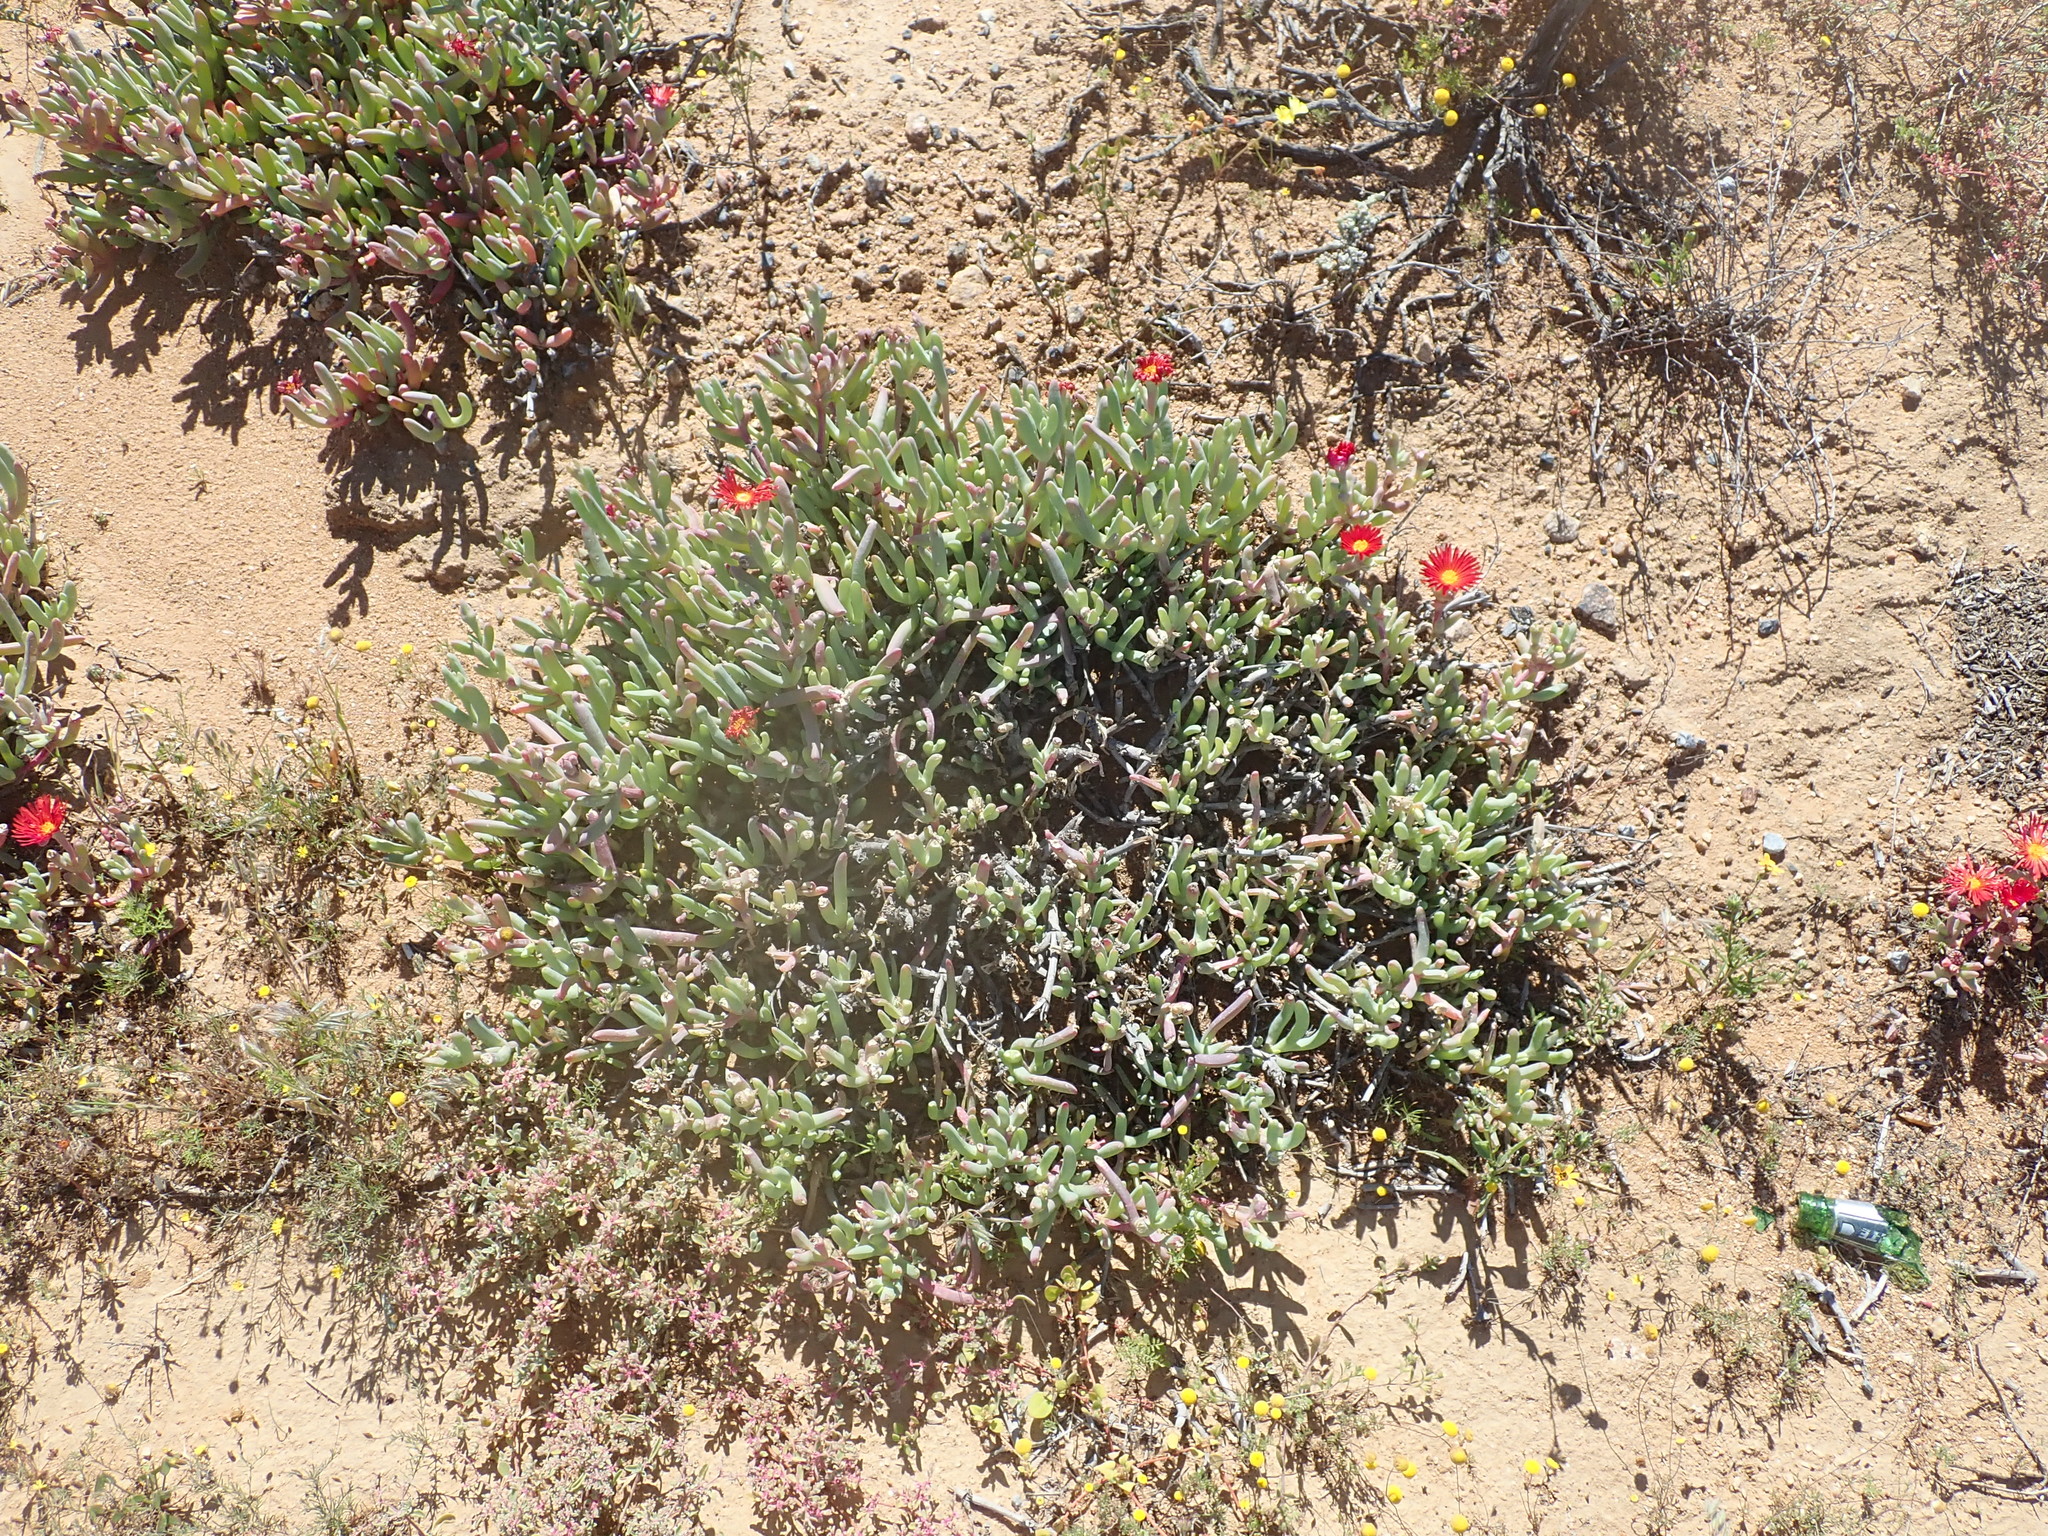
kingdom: Plantae
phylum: Tracheophyta
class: Magnoliopsida
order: Caryophyllales
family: Aizoaceae
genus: Malephora
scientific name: Malephora purpureocrocea
